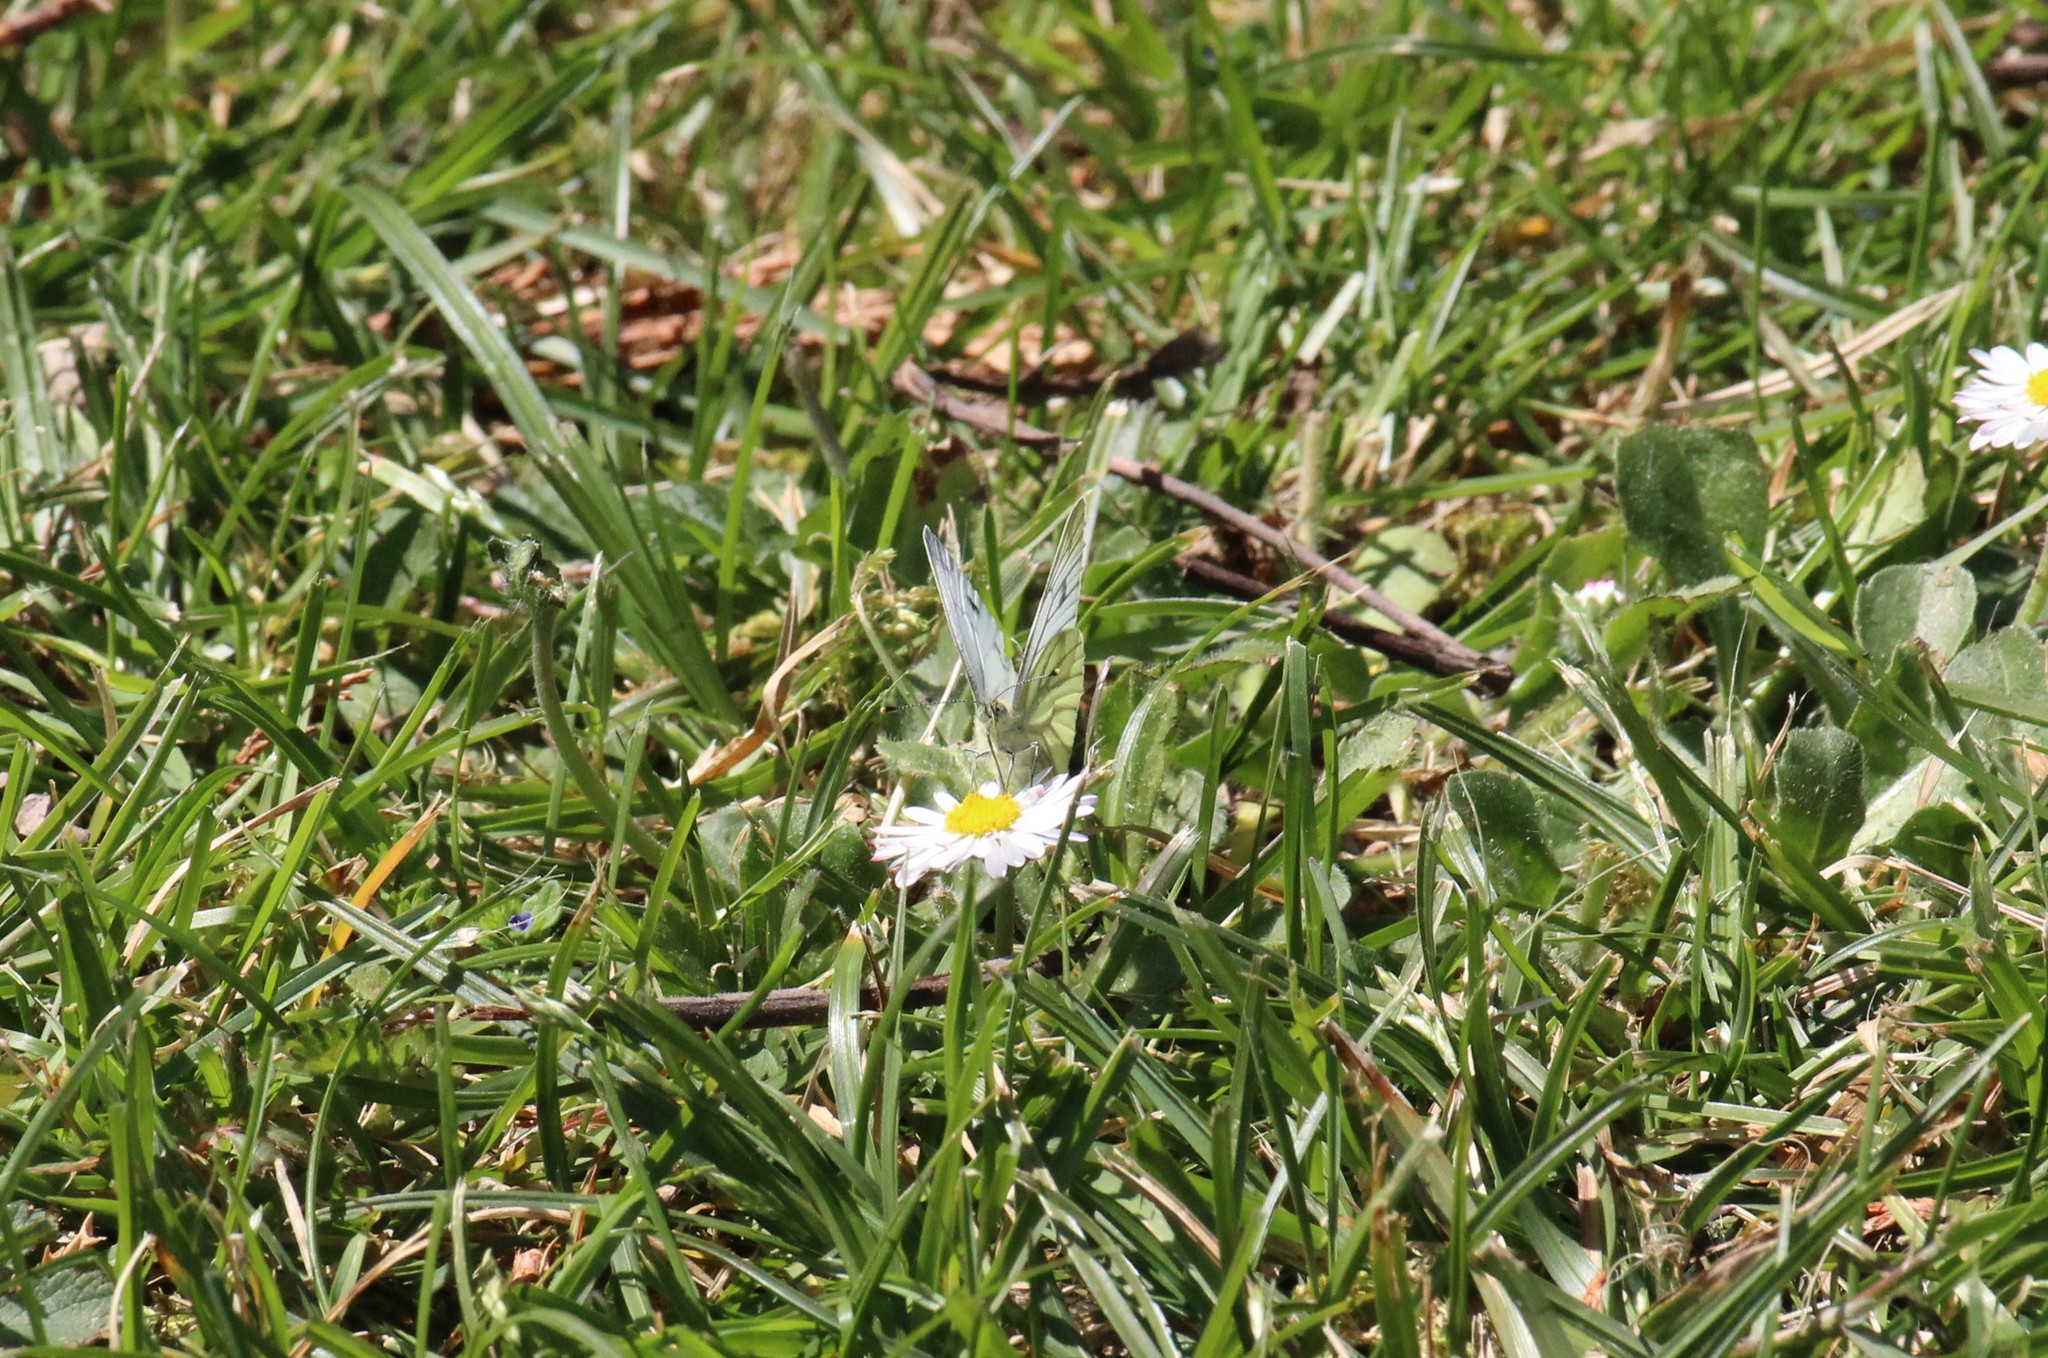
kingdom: Animalia
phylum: Arthropoda
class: Insecta
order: Lepidoptera
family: Pieridae
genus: Pieris
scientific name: Pieris napi
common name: Green-veined white
